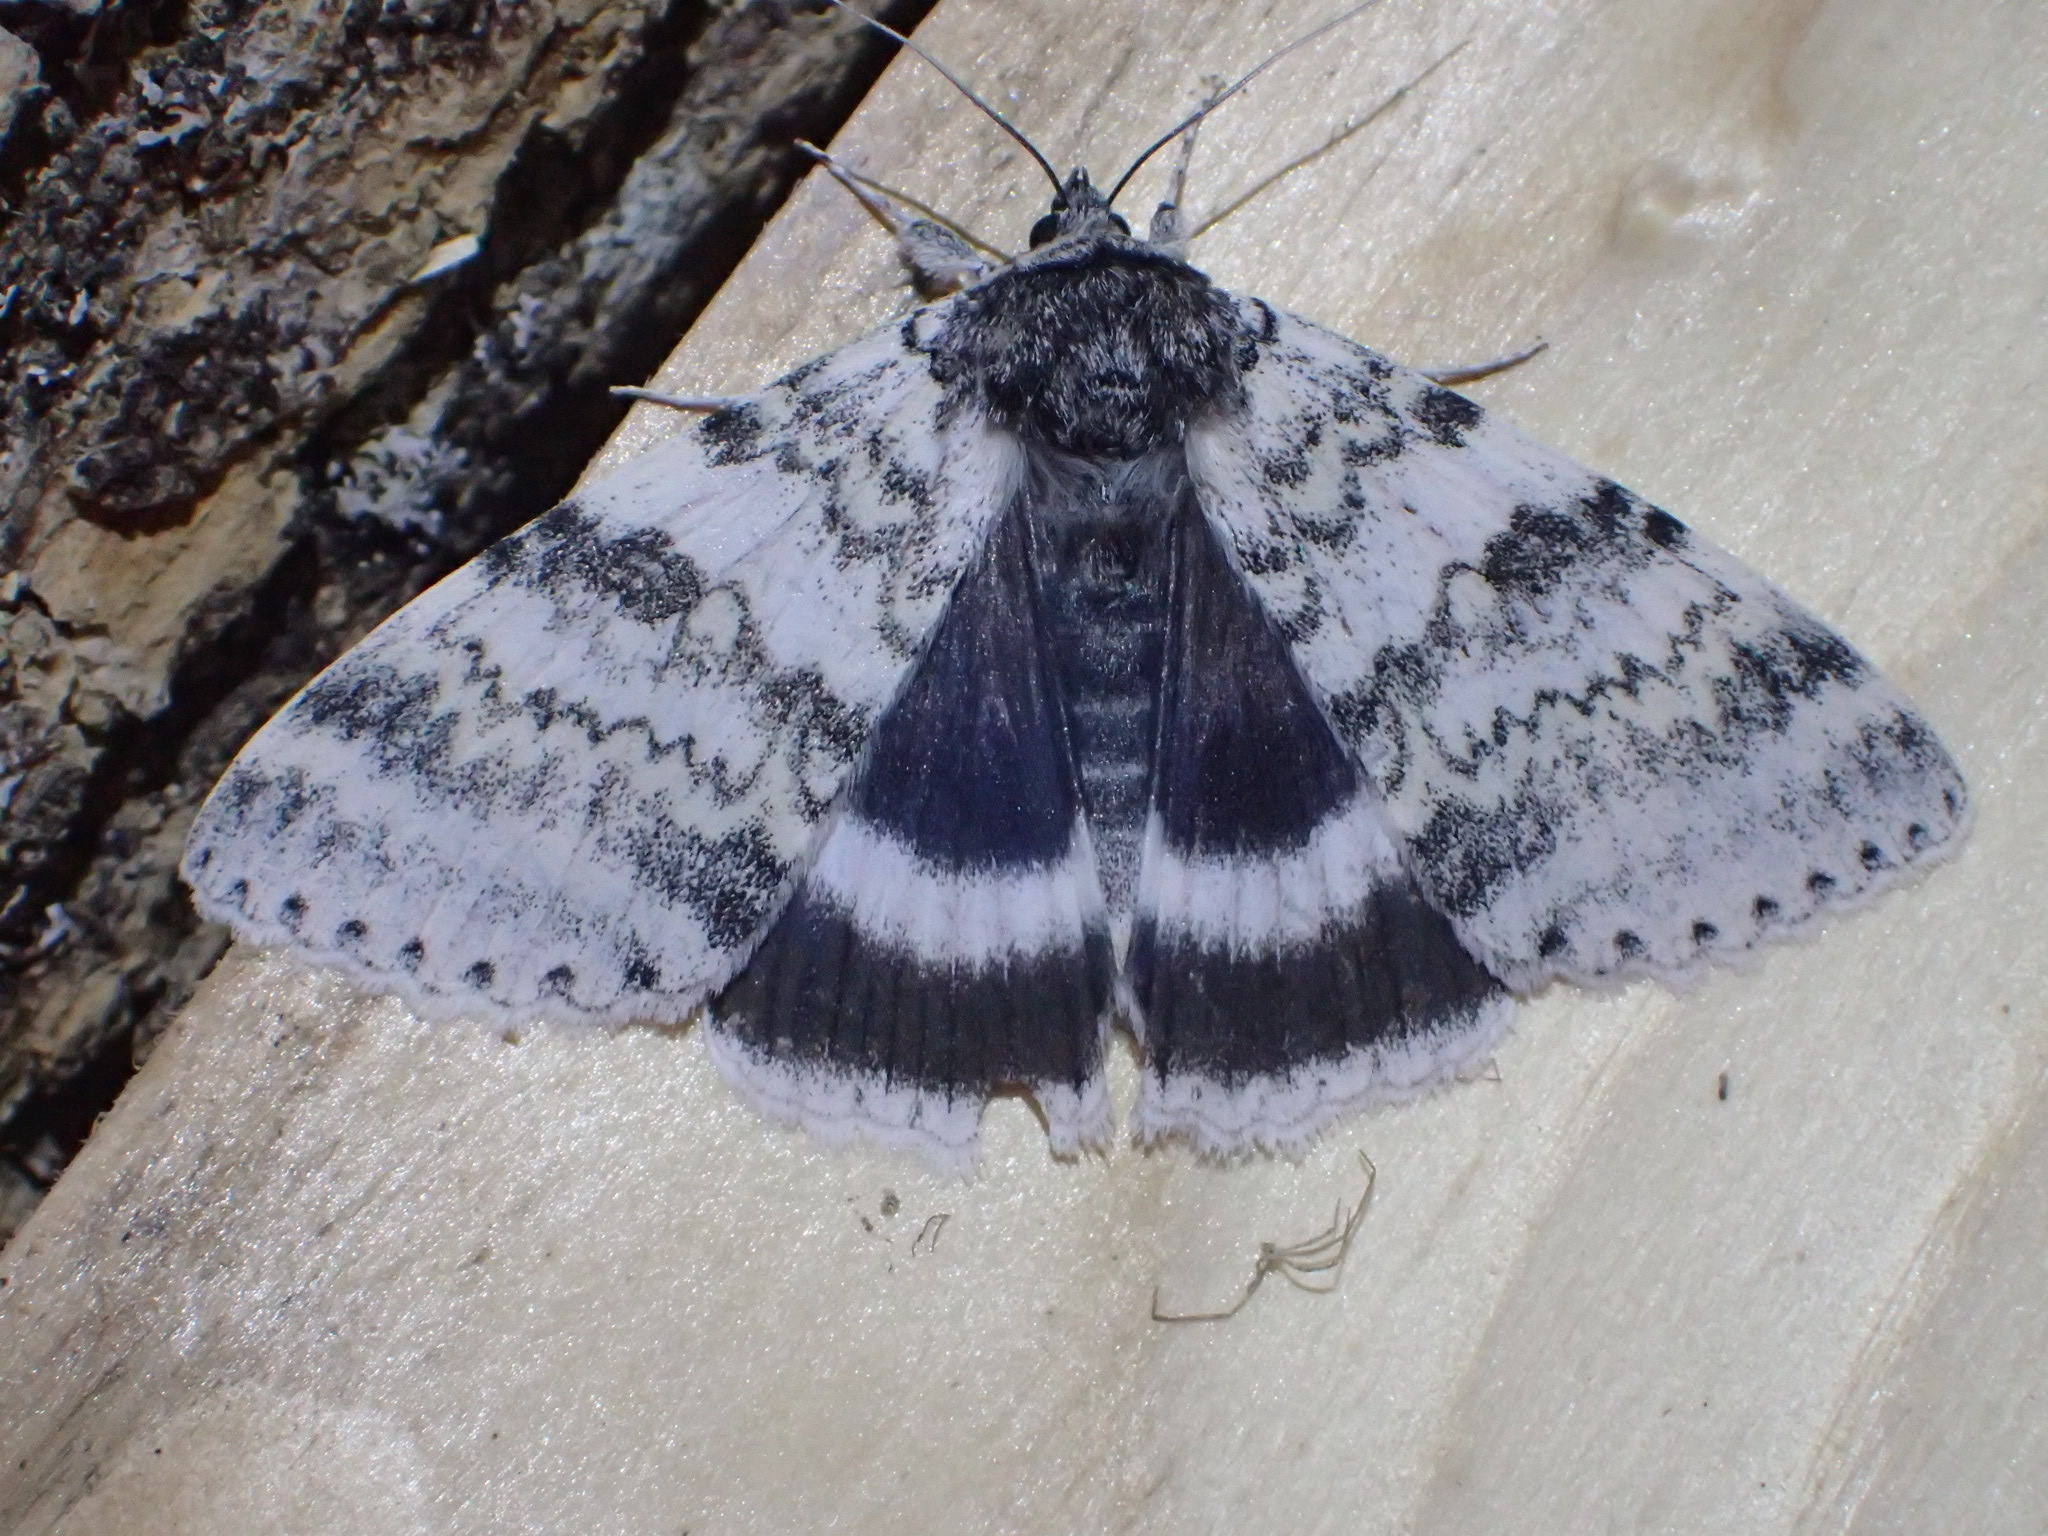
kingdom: Animalia
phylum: Arthropoda
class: Insecta
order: Lepidoptera
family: Erebidae
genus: Catocala
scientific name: Catocala relicta
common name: White underwing
